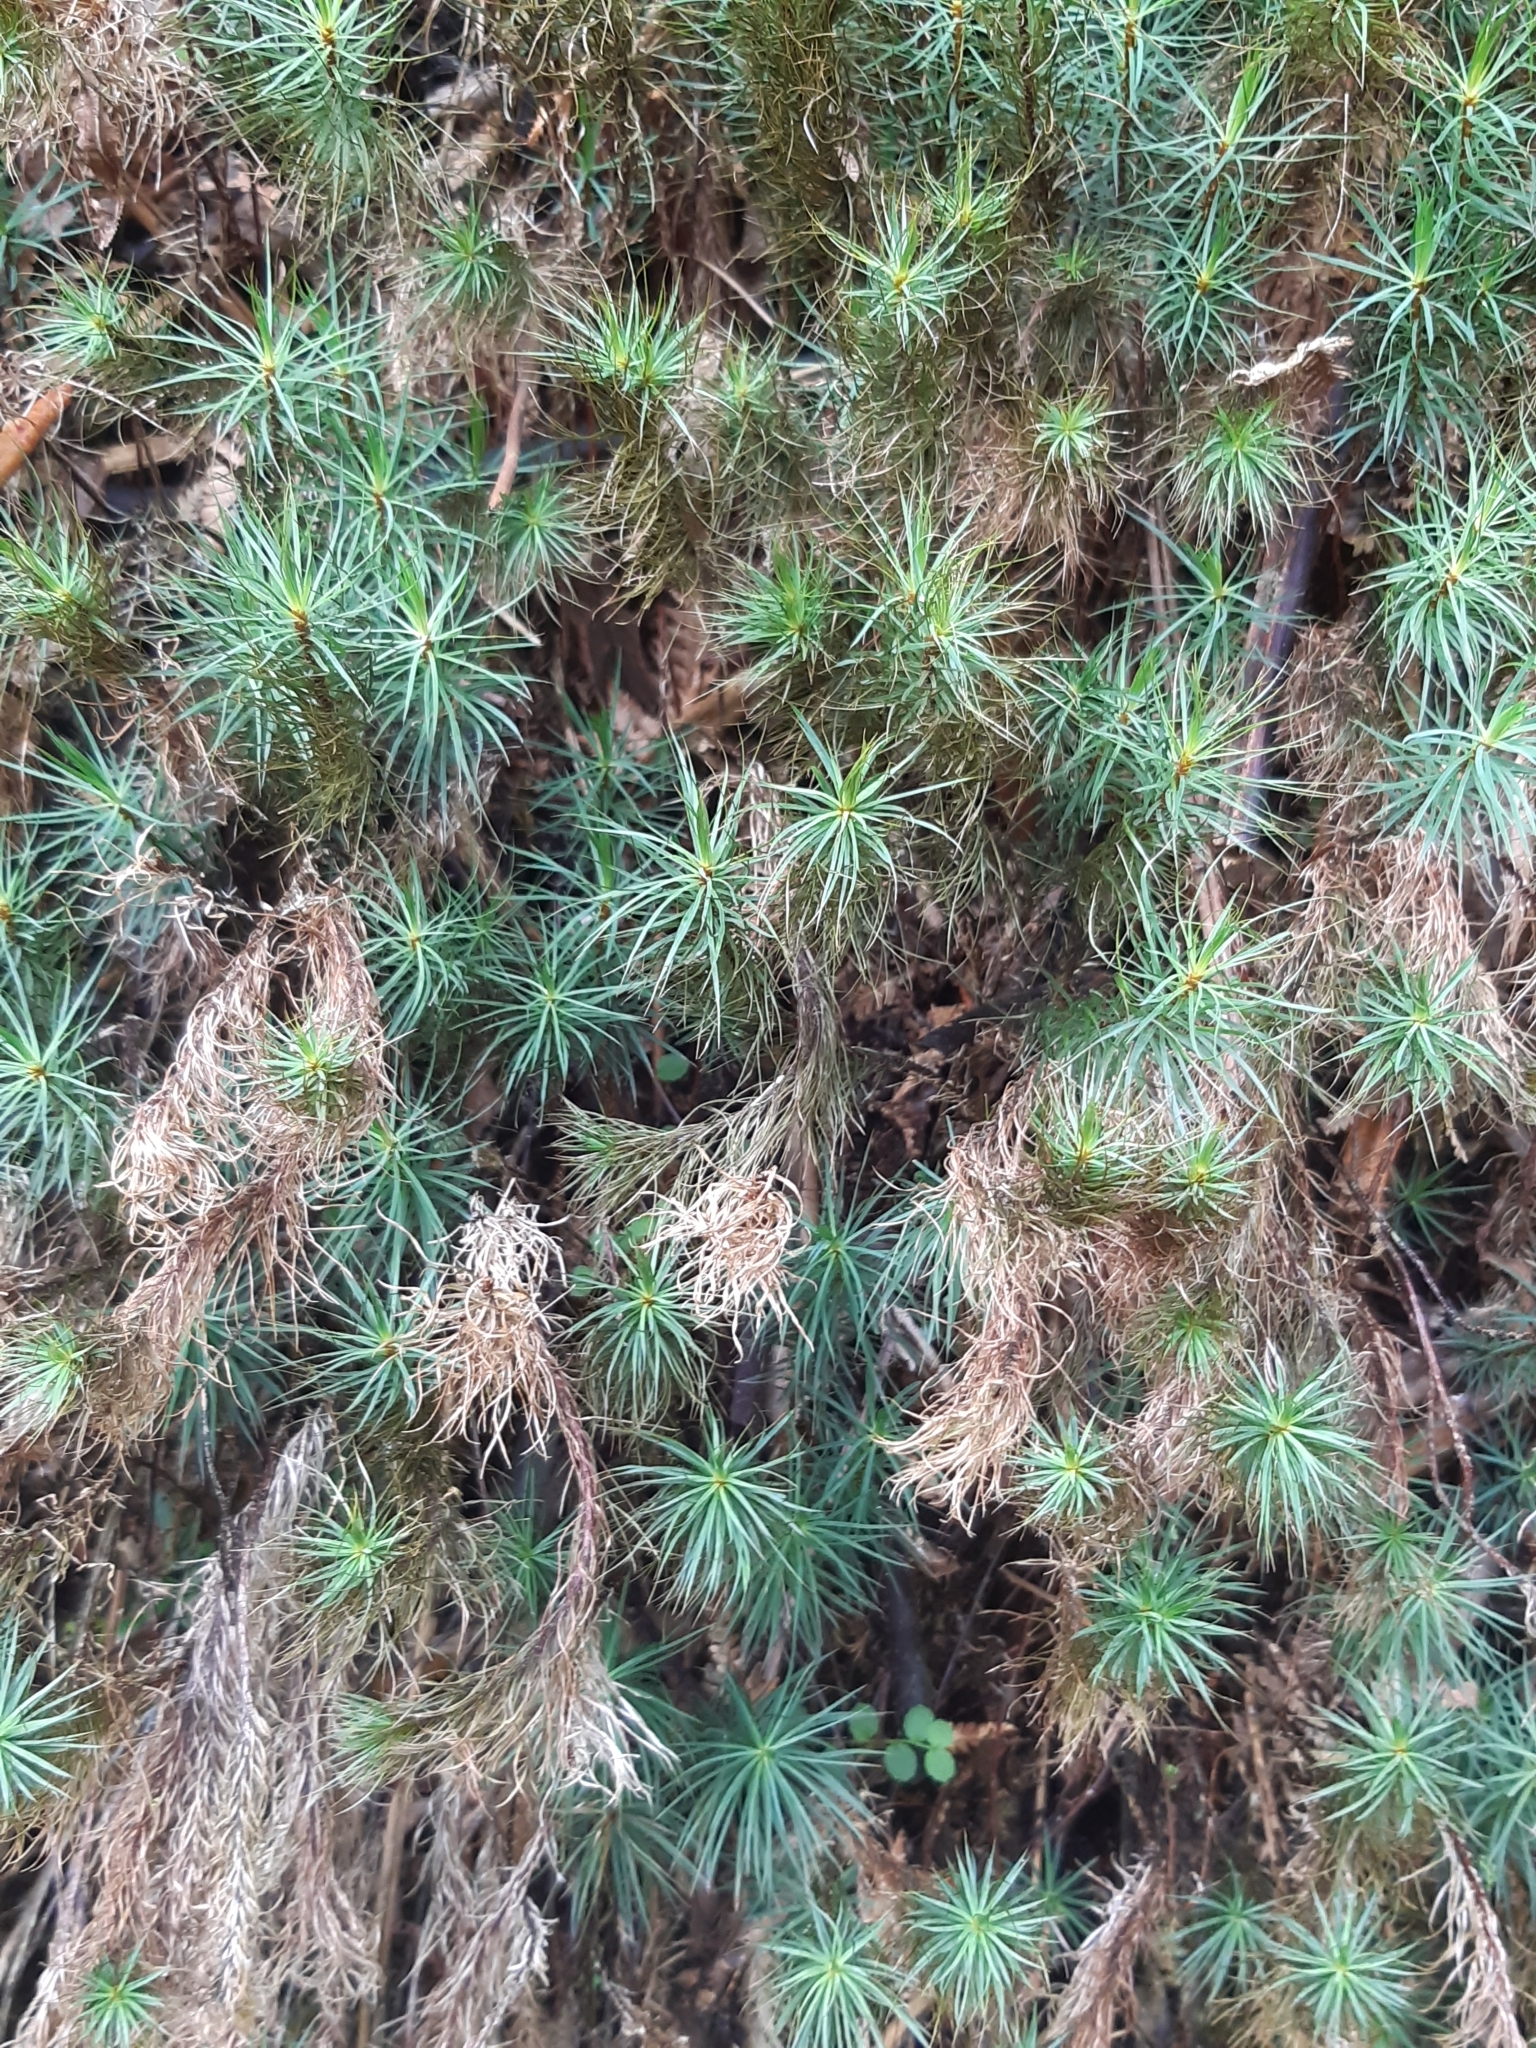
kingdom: Plantae
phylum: Bryophyta
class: Polytrichopsida
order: Polytrichales
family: Polytrichaceae
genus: Dawsonia
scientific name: Dawsonia superba
